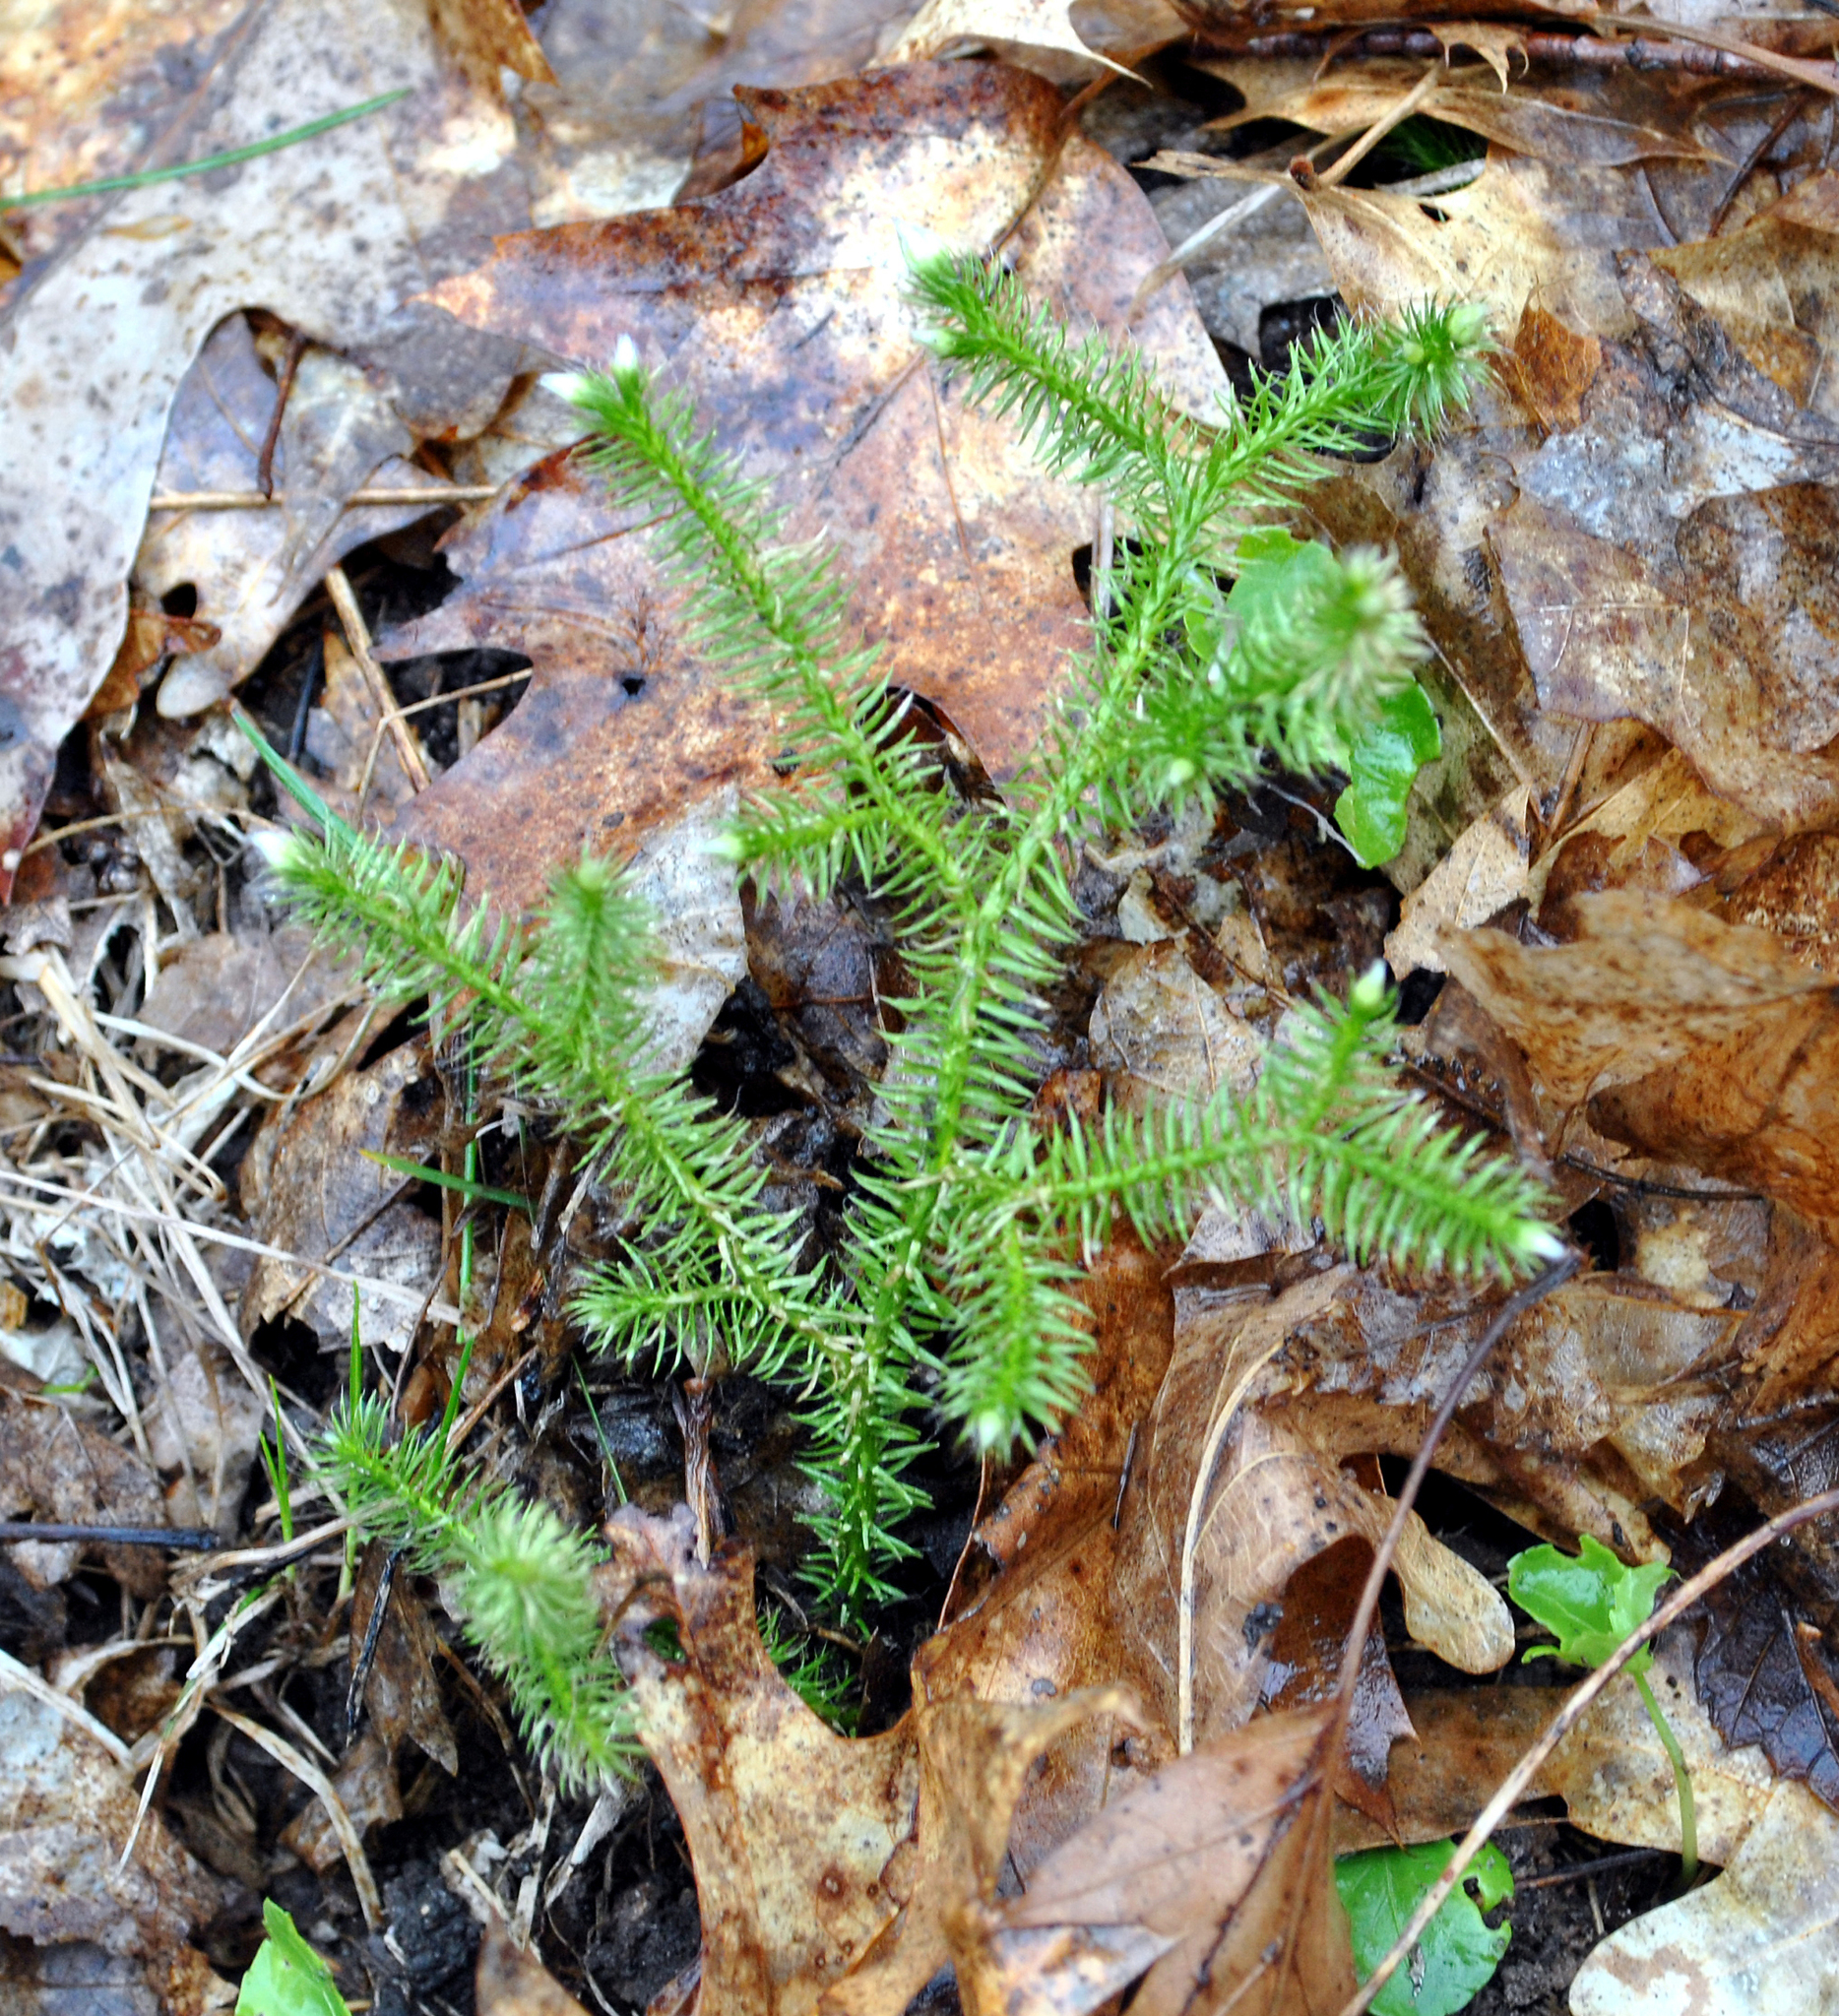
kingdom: Plantae
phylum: Tracheophyta
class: Lycopodiopsida
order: Lycopodiales
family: Lycopodiaceae
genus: Lycopodium
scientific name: Lycopodium clavatum
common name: Stag's-horn clubmoss
